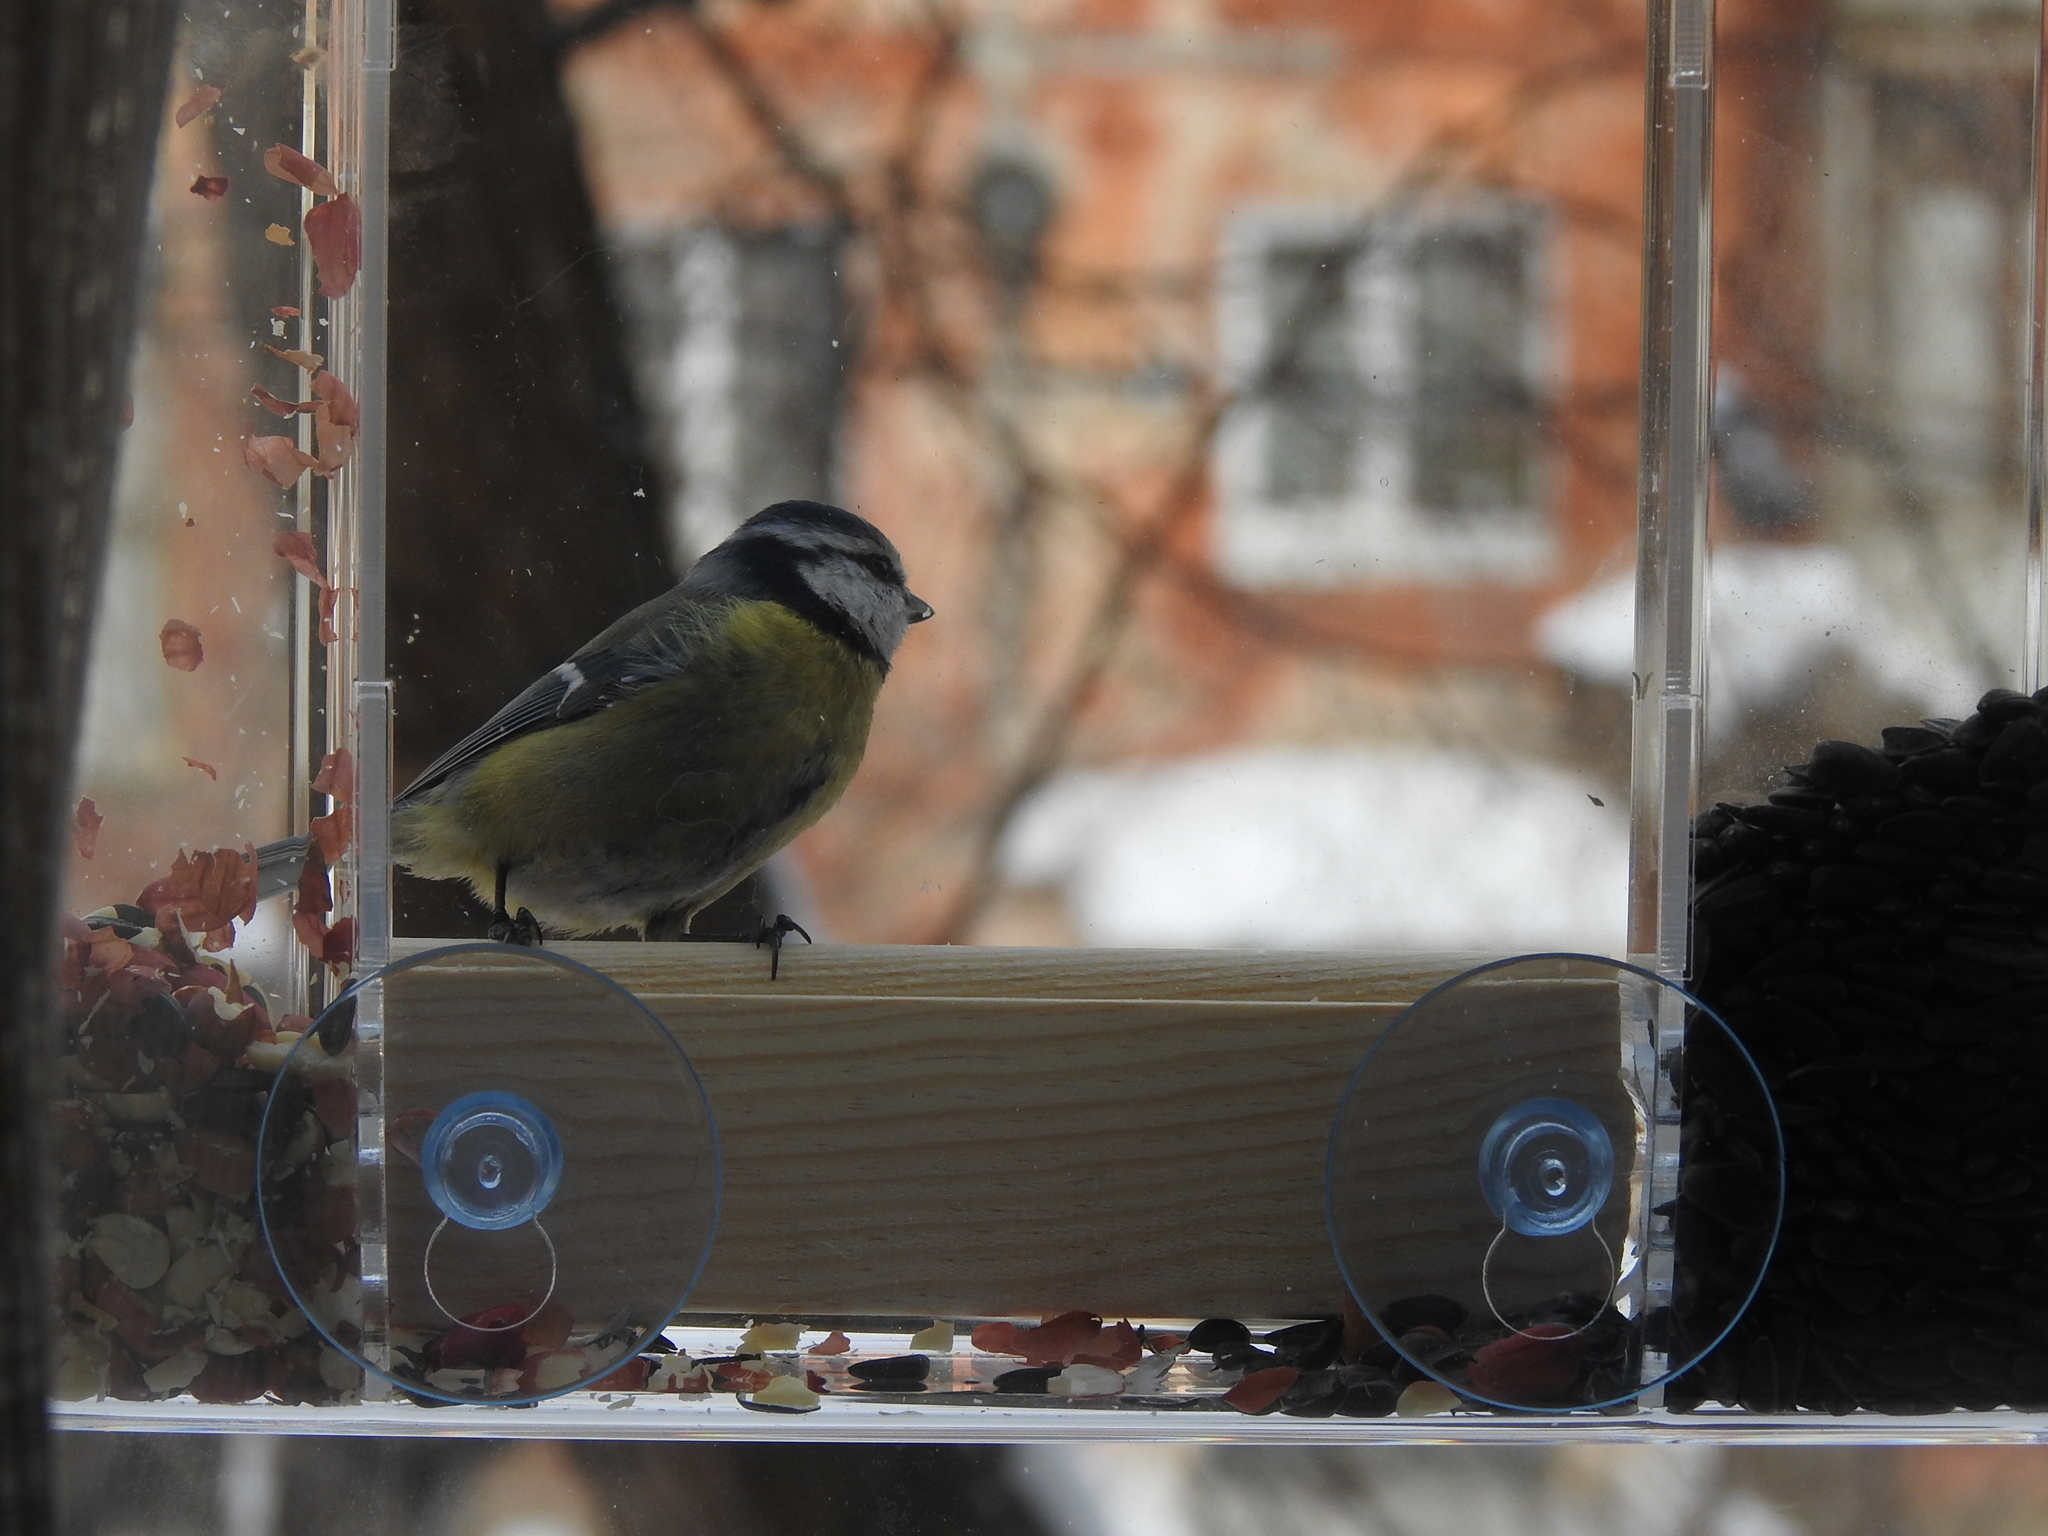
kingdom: Animalia
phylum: Chordata
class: Aves
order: Passeriformes
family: Paridae
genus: Cyanistes
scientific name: Cyanistes caeruleus
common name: Eurasian blue tit
